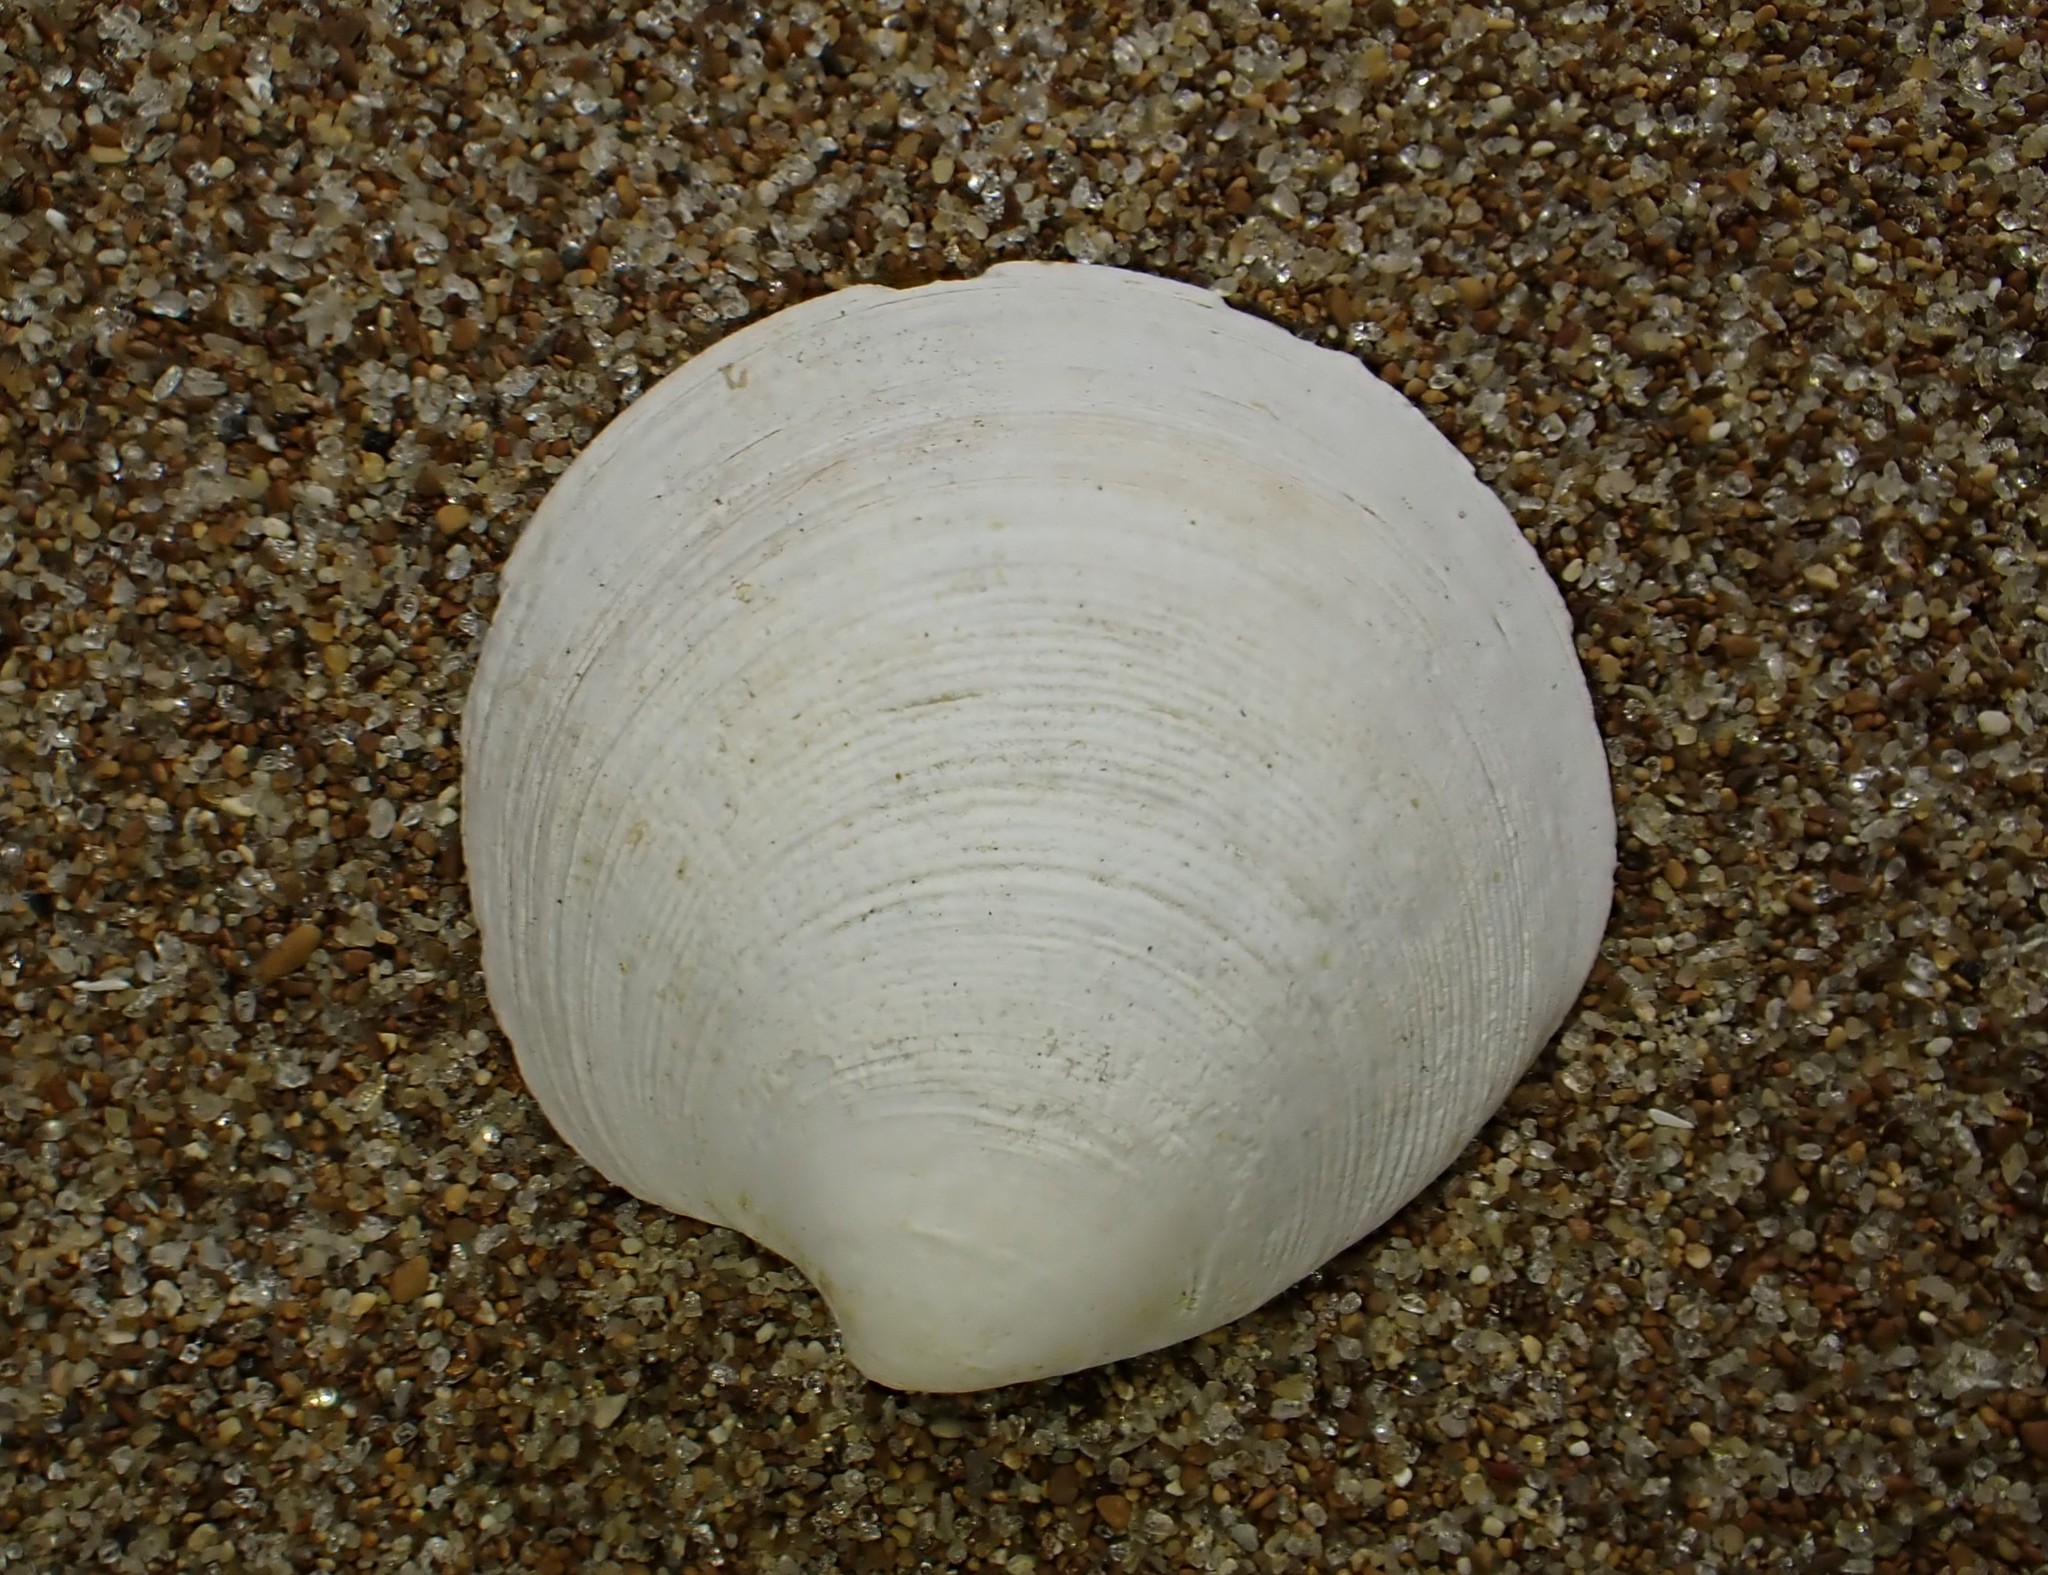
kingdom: Animalia
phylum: Mollusca
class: Bivalvia
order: Venerida
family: Veneridae
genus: Dosinia
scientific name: Dosinia subrosea
